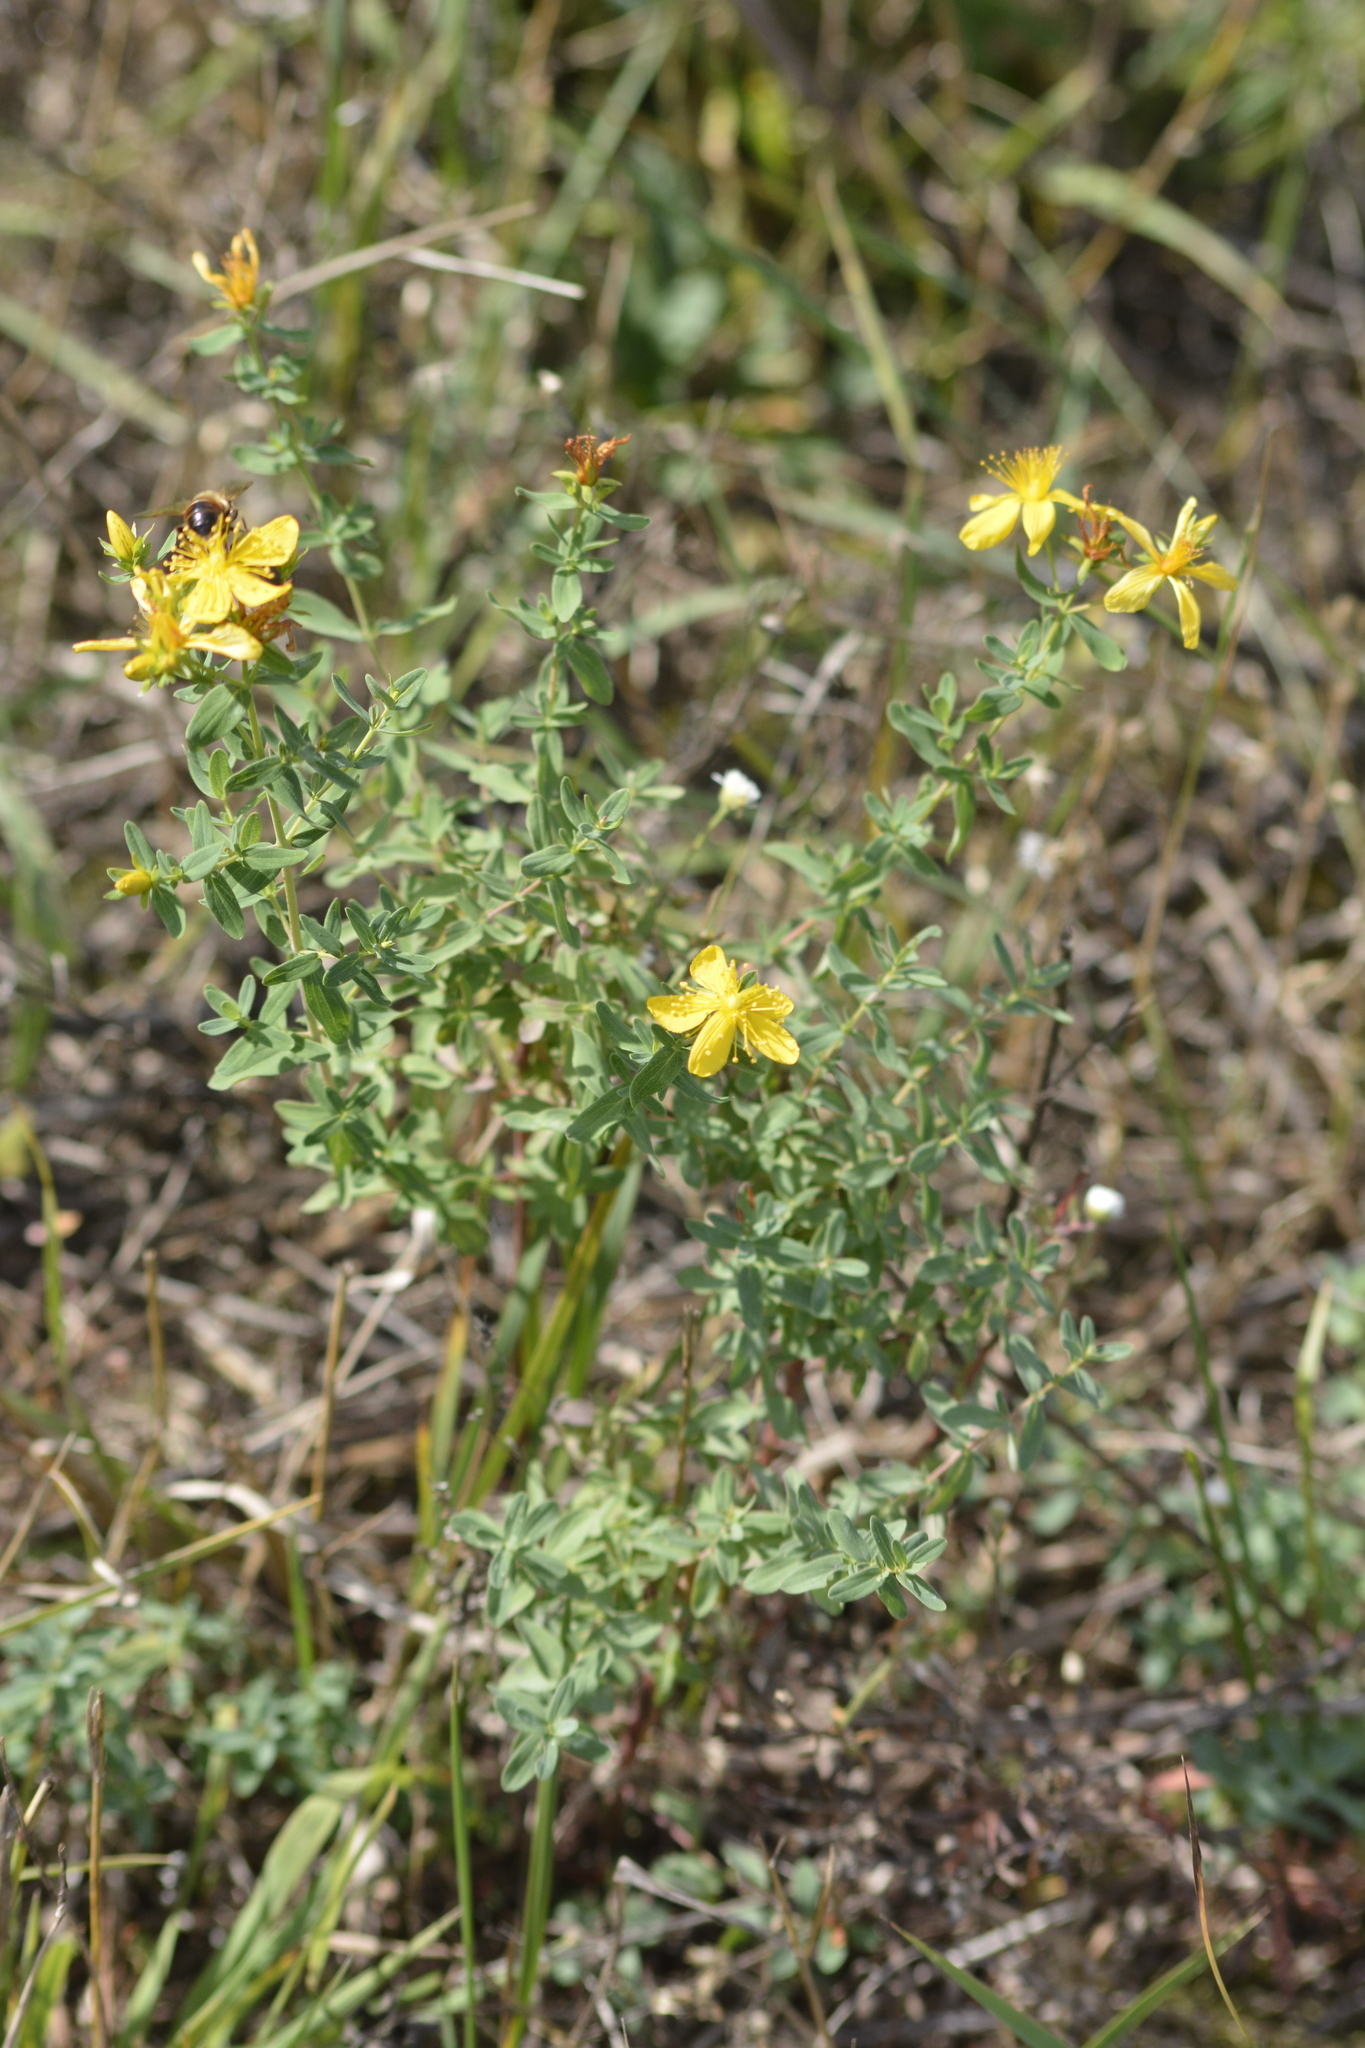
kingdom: Plantae
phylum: Tracheophyta
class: Magnoliopsida
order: Malpighiales
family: Hypericaceae
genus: Hypericum
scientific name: Hypericum perforatum
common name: Common st. johnswort
